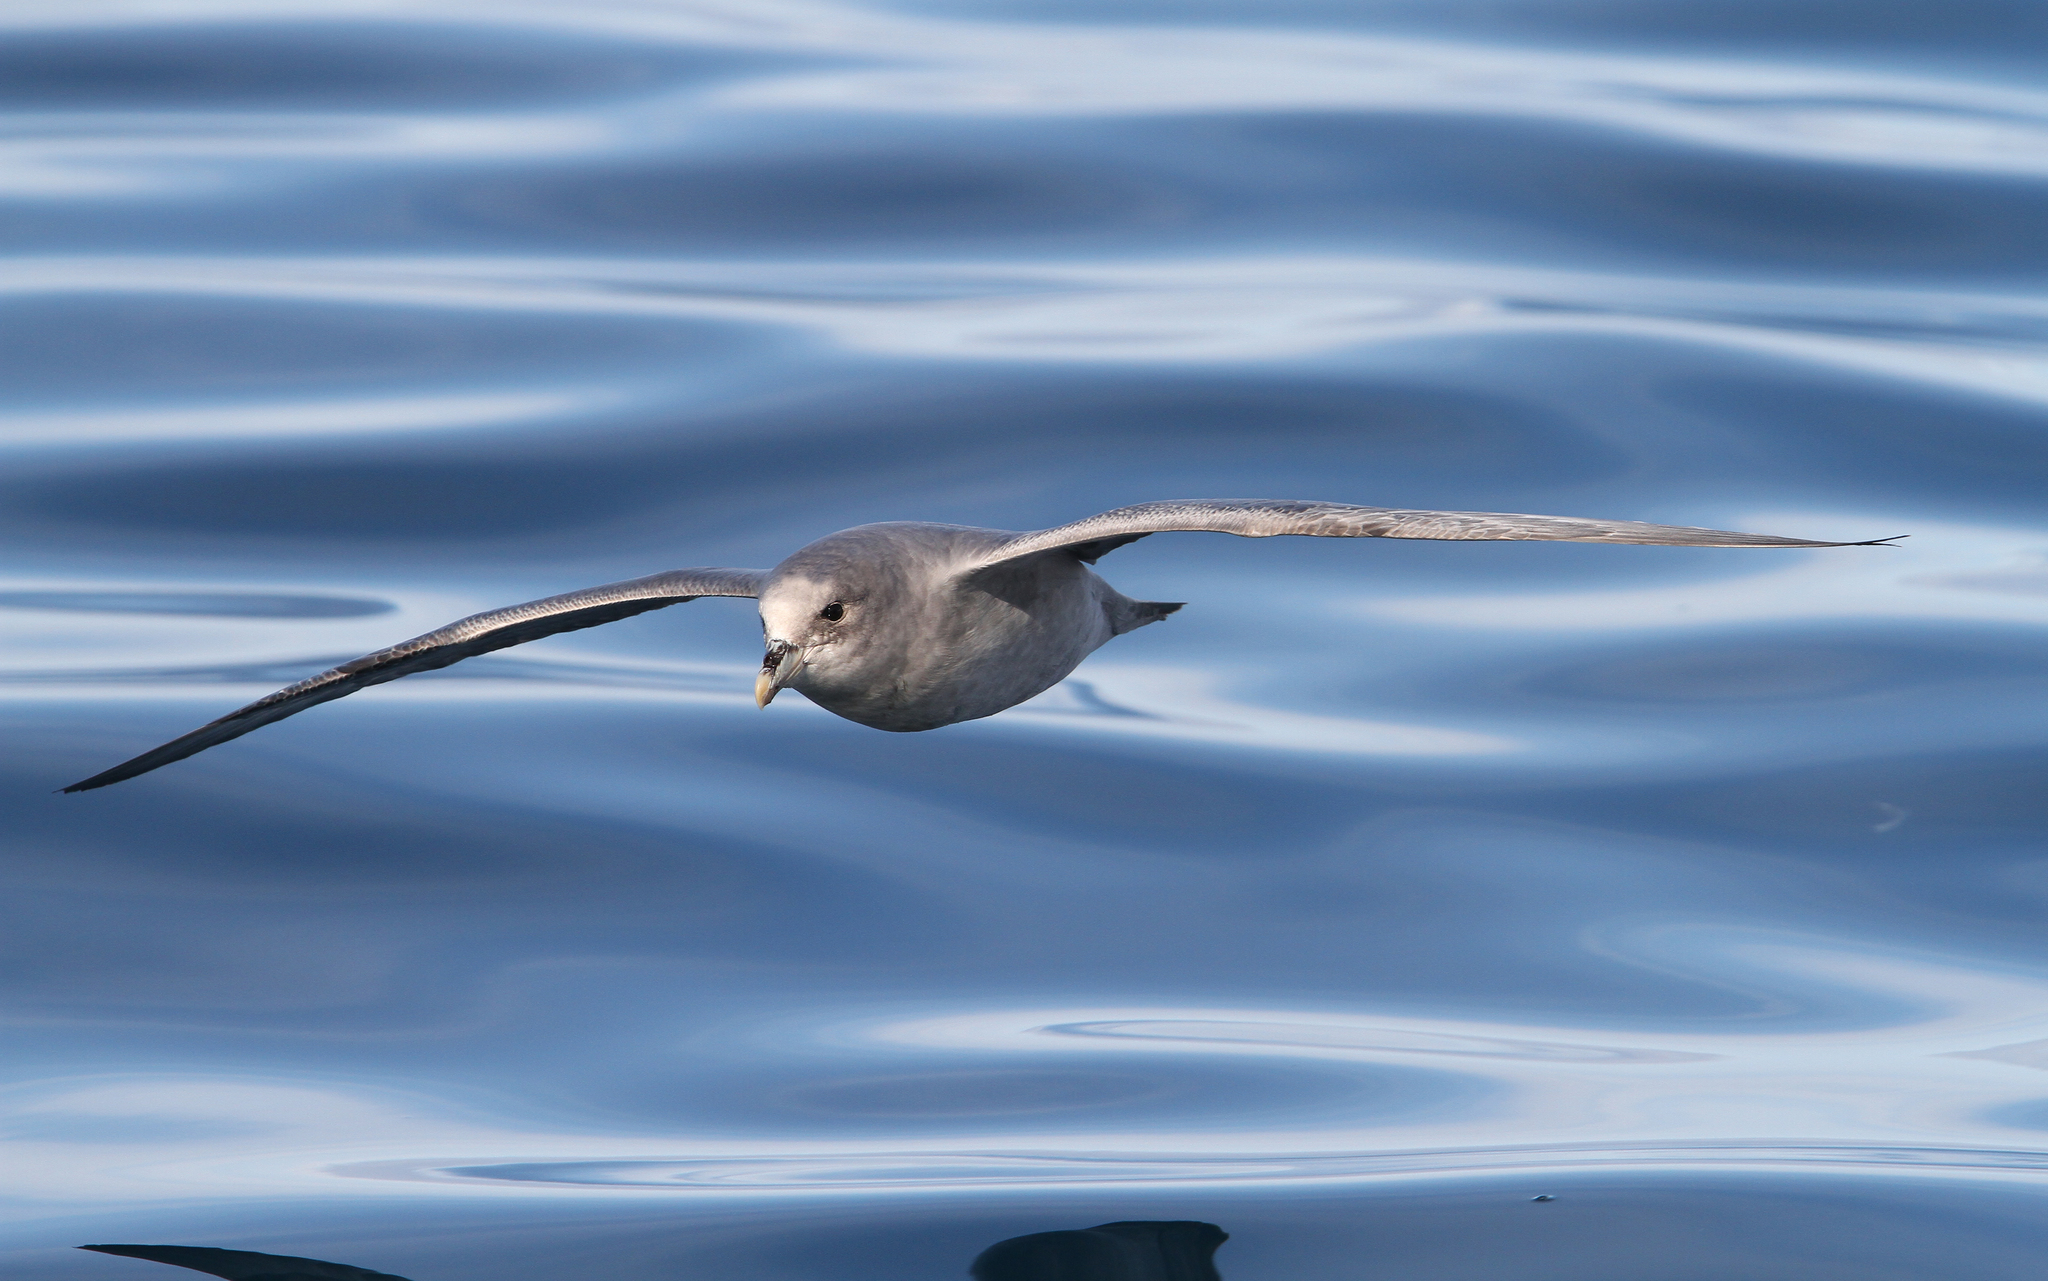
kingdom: Animalia
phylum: Chordata
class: Aves
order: Procellariiformes
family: Procellariidae
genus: Fulmarus
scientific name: Fulmarus glacialis
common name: Northern fulmar
